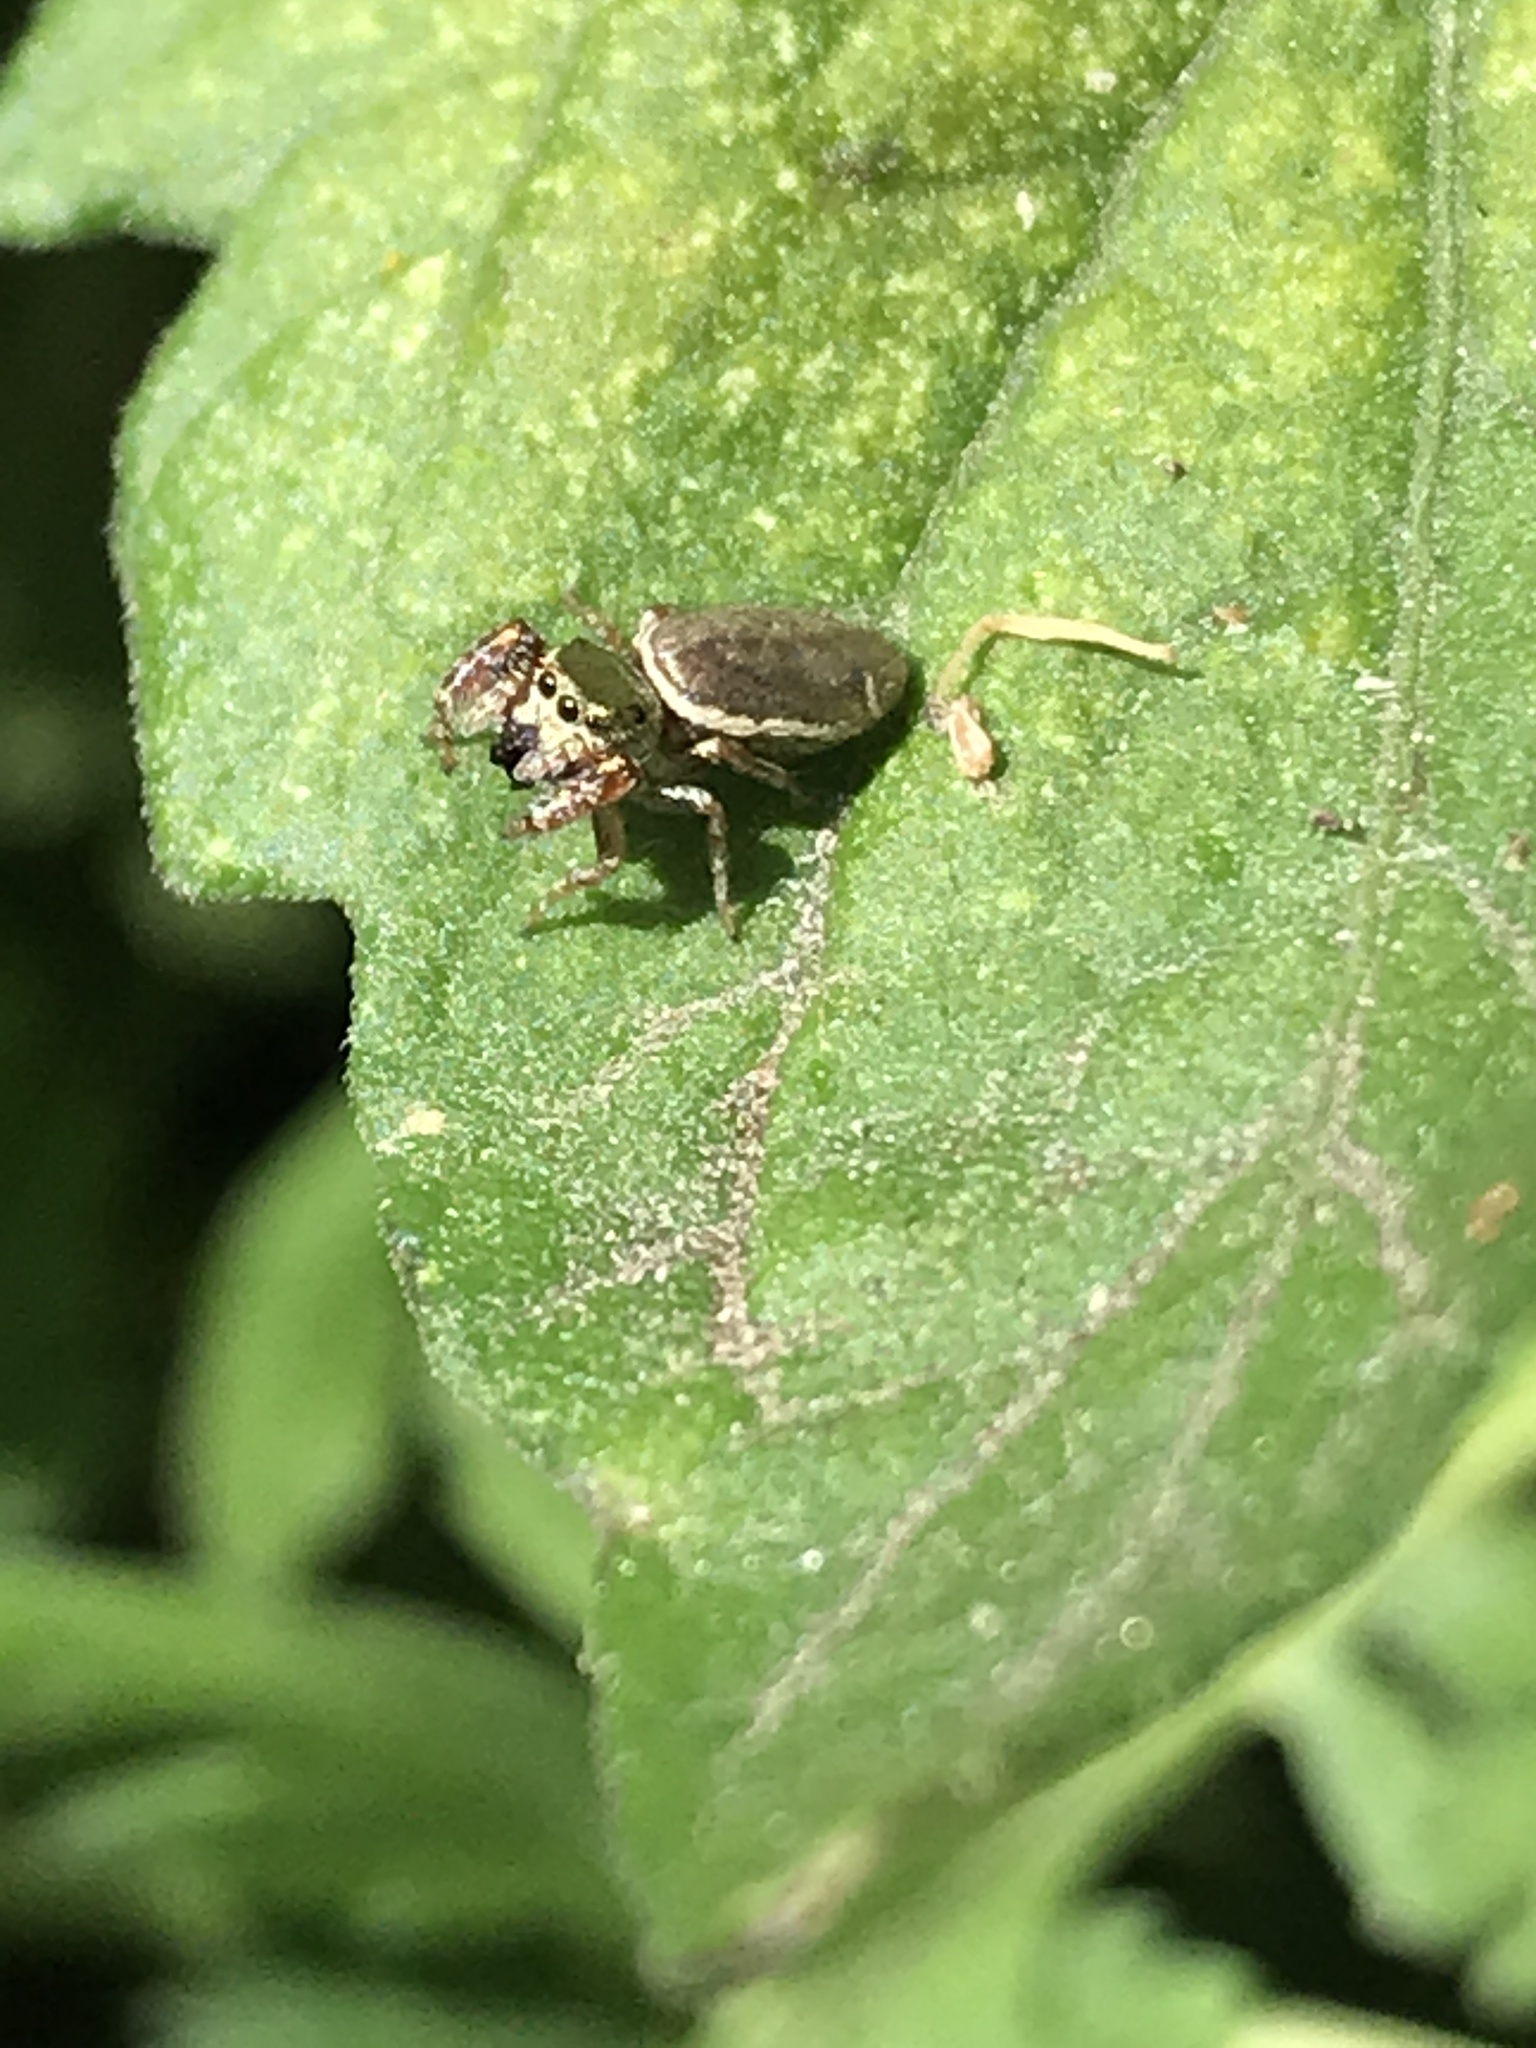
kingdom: Animalia
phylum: Arthropoda
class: Arachnida
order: Araneae
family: Salticidae
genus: Sassacus
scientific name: Sassacus vitis
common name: Jumping spiders
